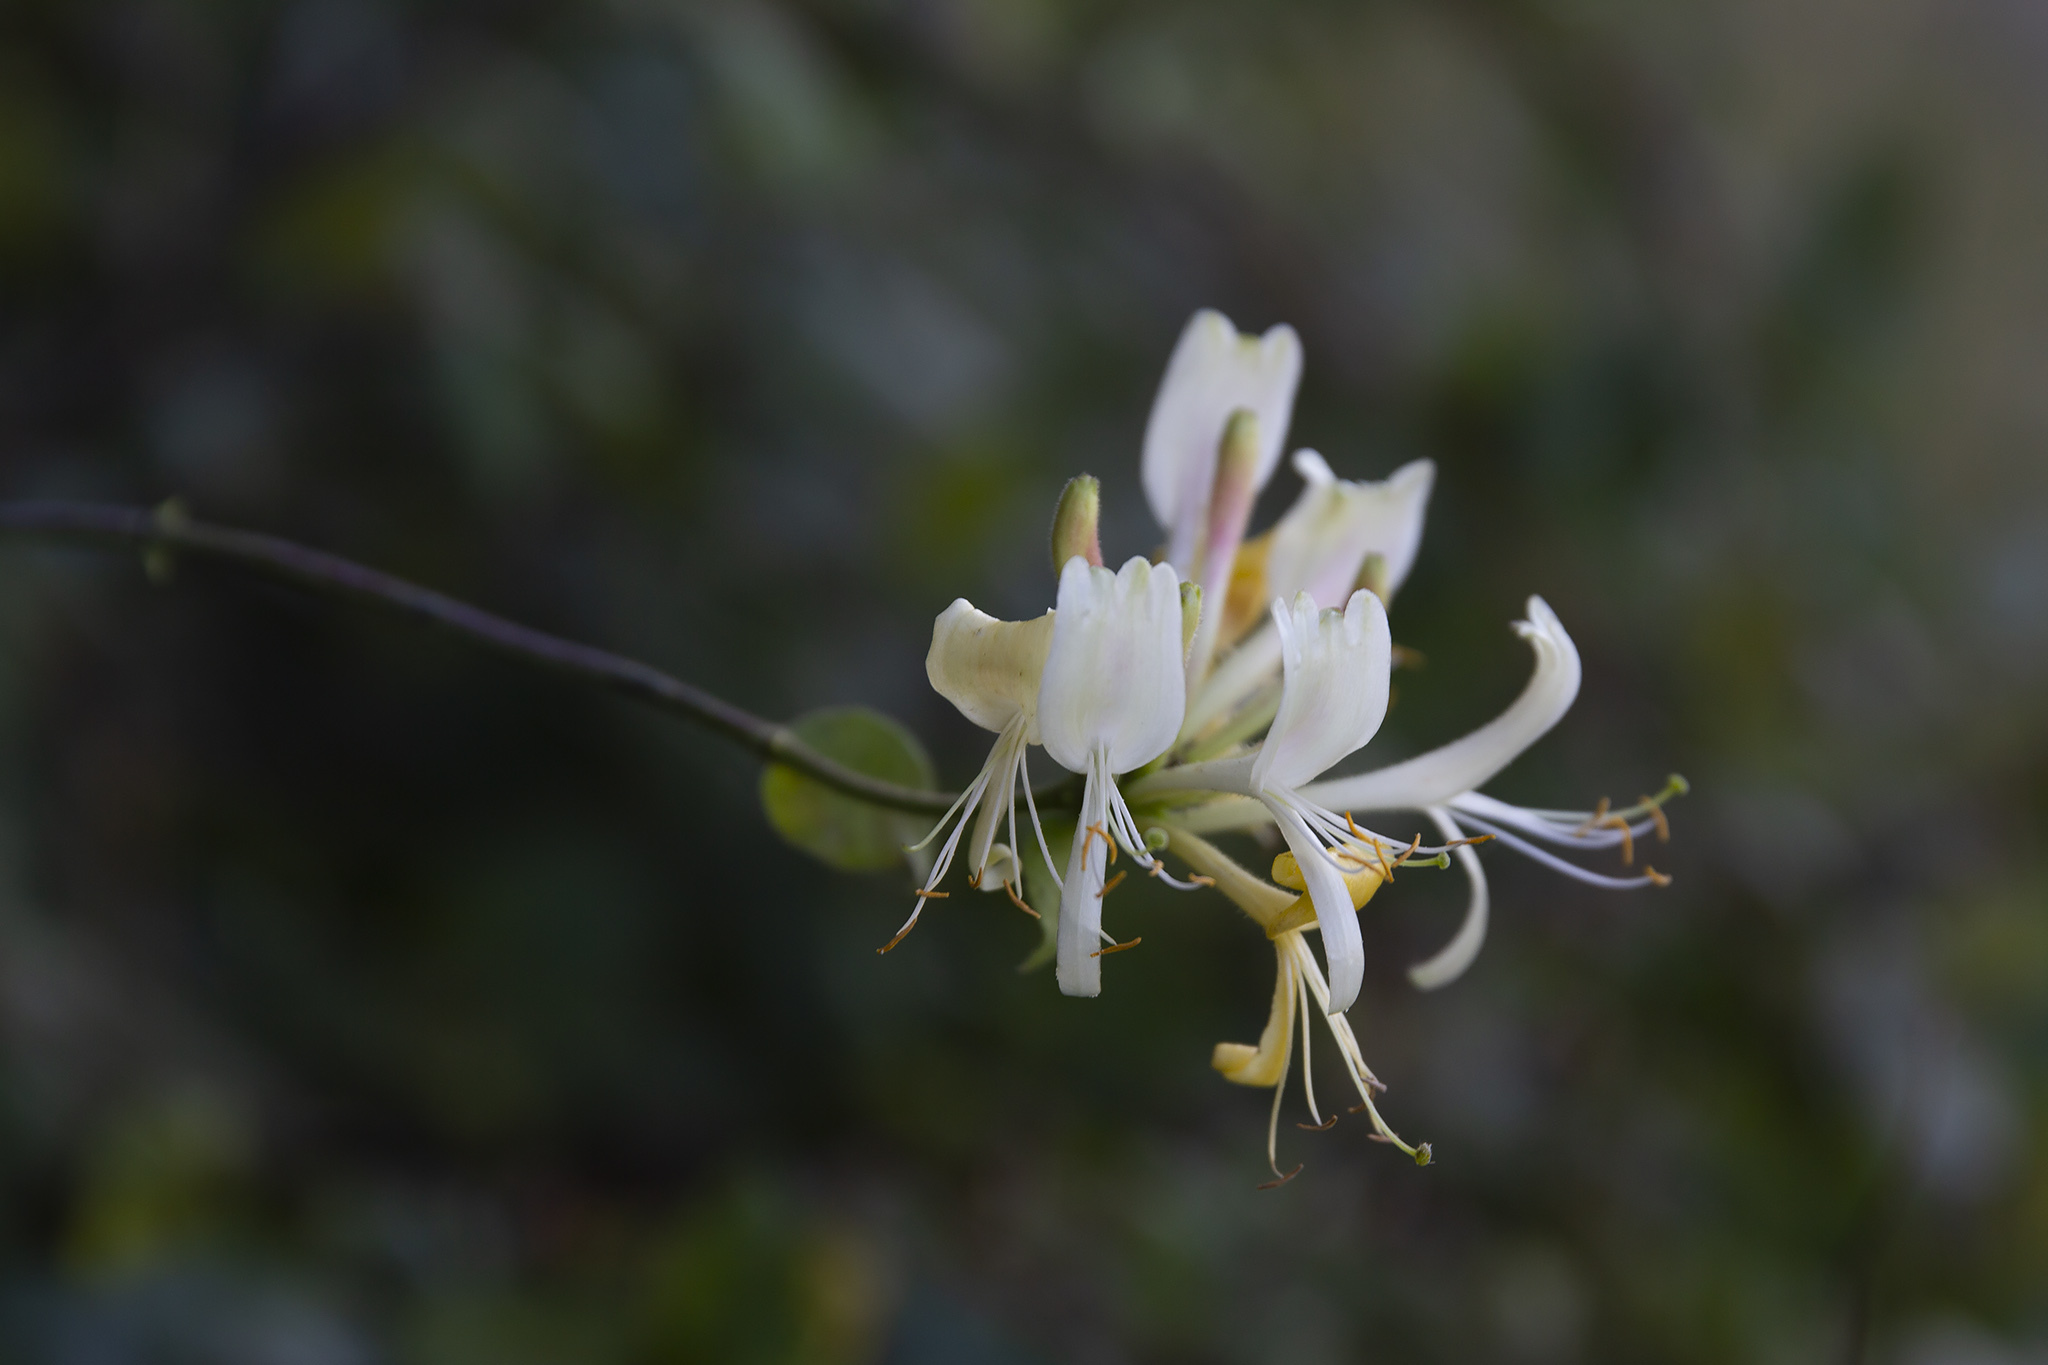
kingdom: Plantae
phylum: Tracheophyta
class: Magnoliopsida
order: Dipsacales
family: Caprifoliaceae
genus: Lonicera
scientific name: Lonicera periclymenum
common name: European honeysuckle
